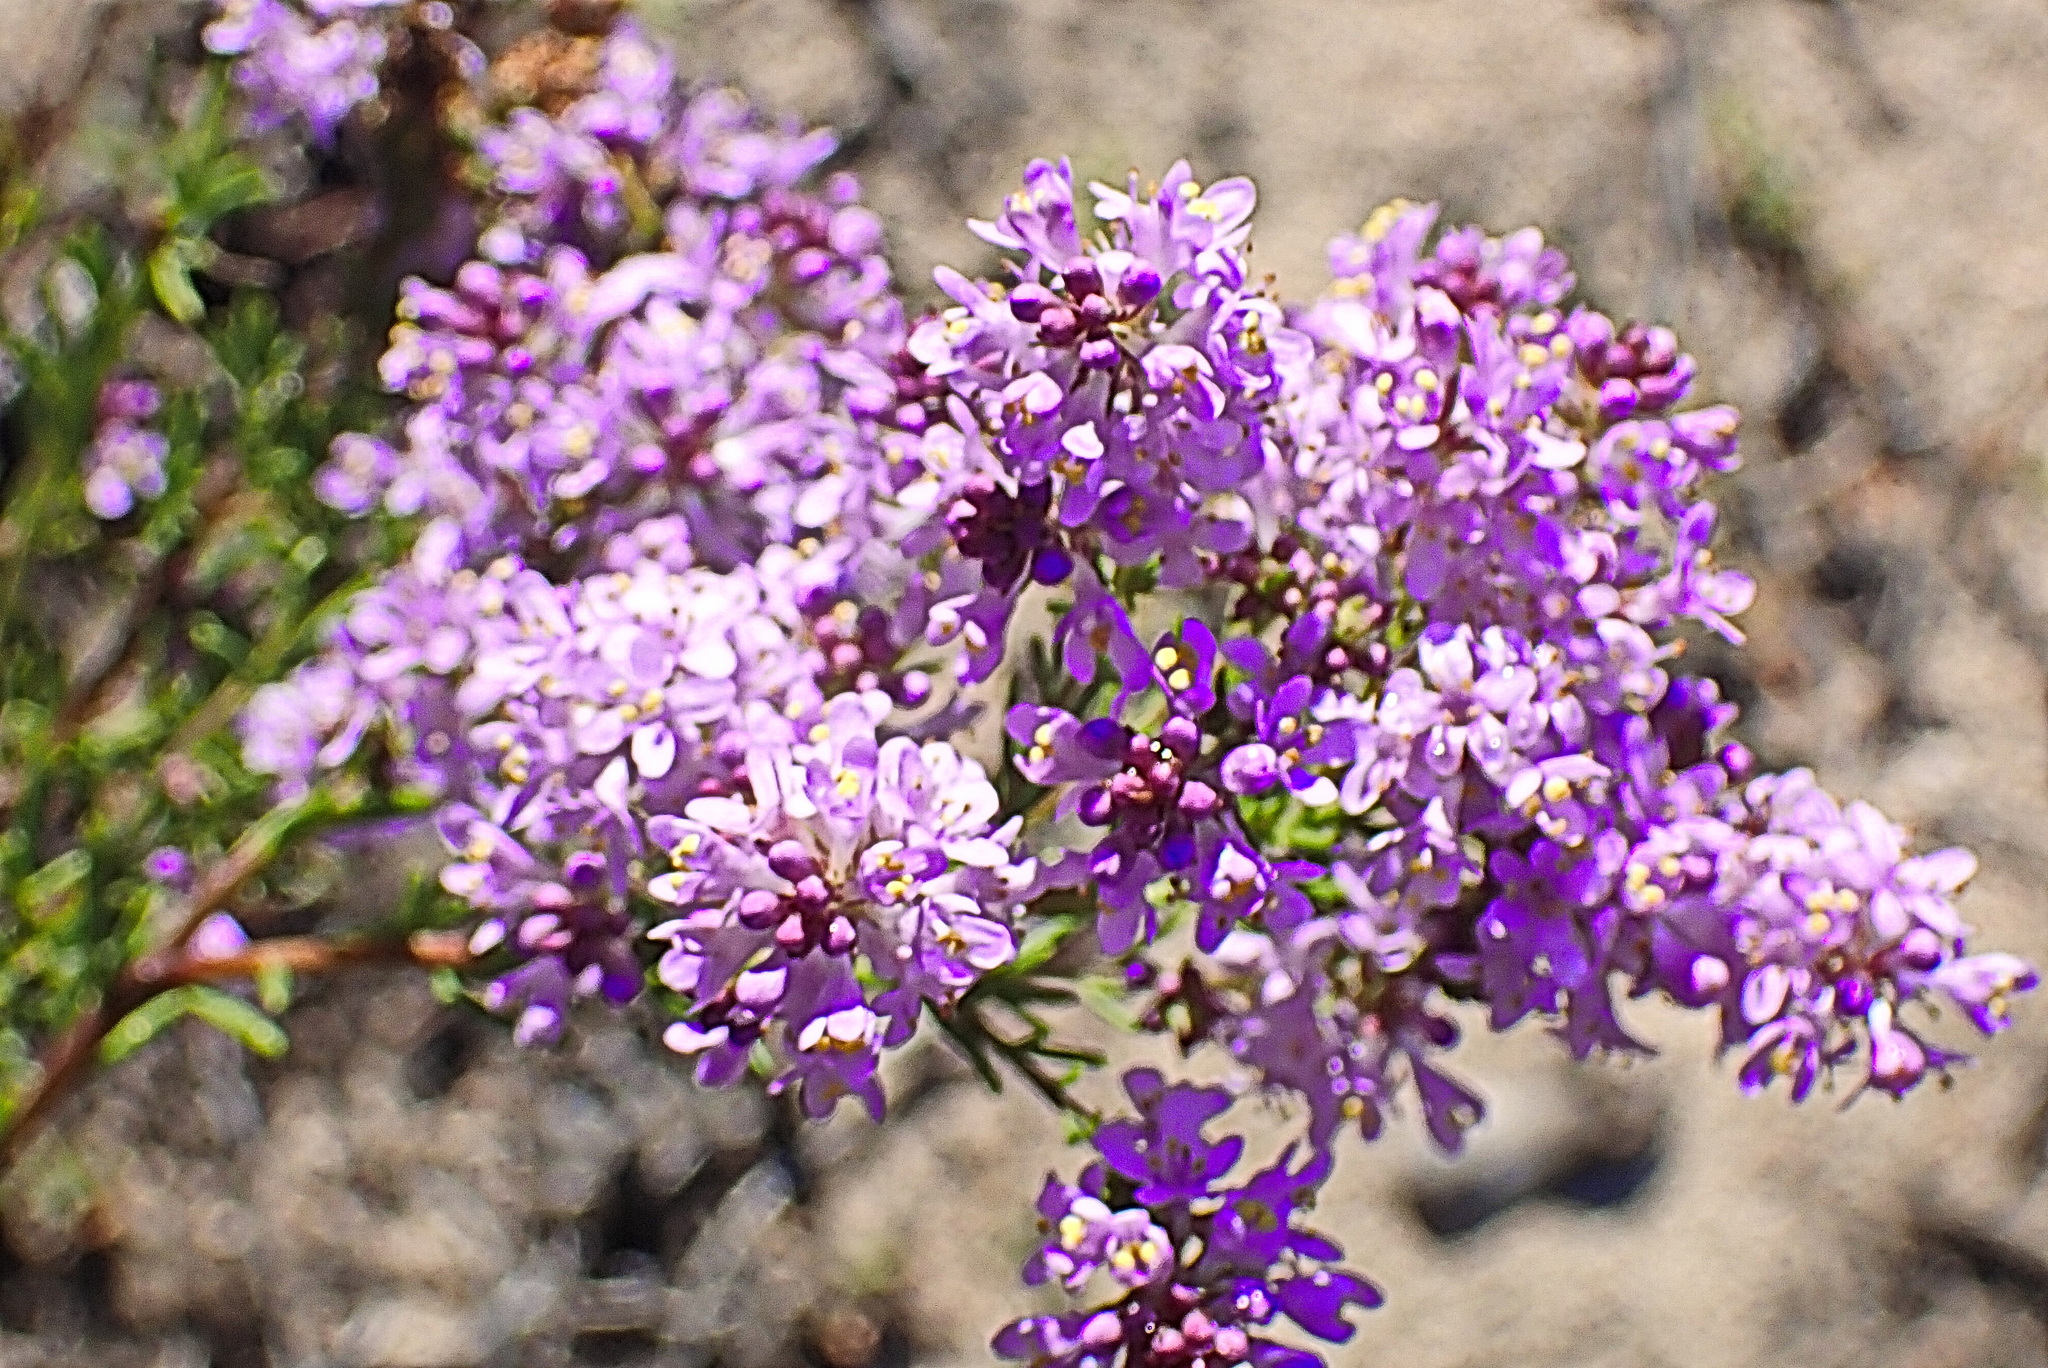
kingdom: Plantae
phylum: Tracheophyta
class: Magnoliopsida
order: Lamiales
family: Scrophulariaceae
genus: Selago
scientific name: Selago canescens
